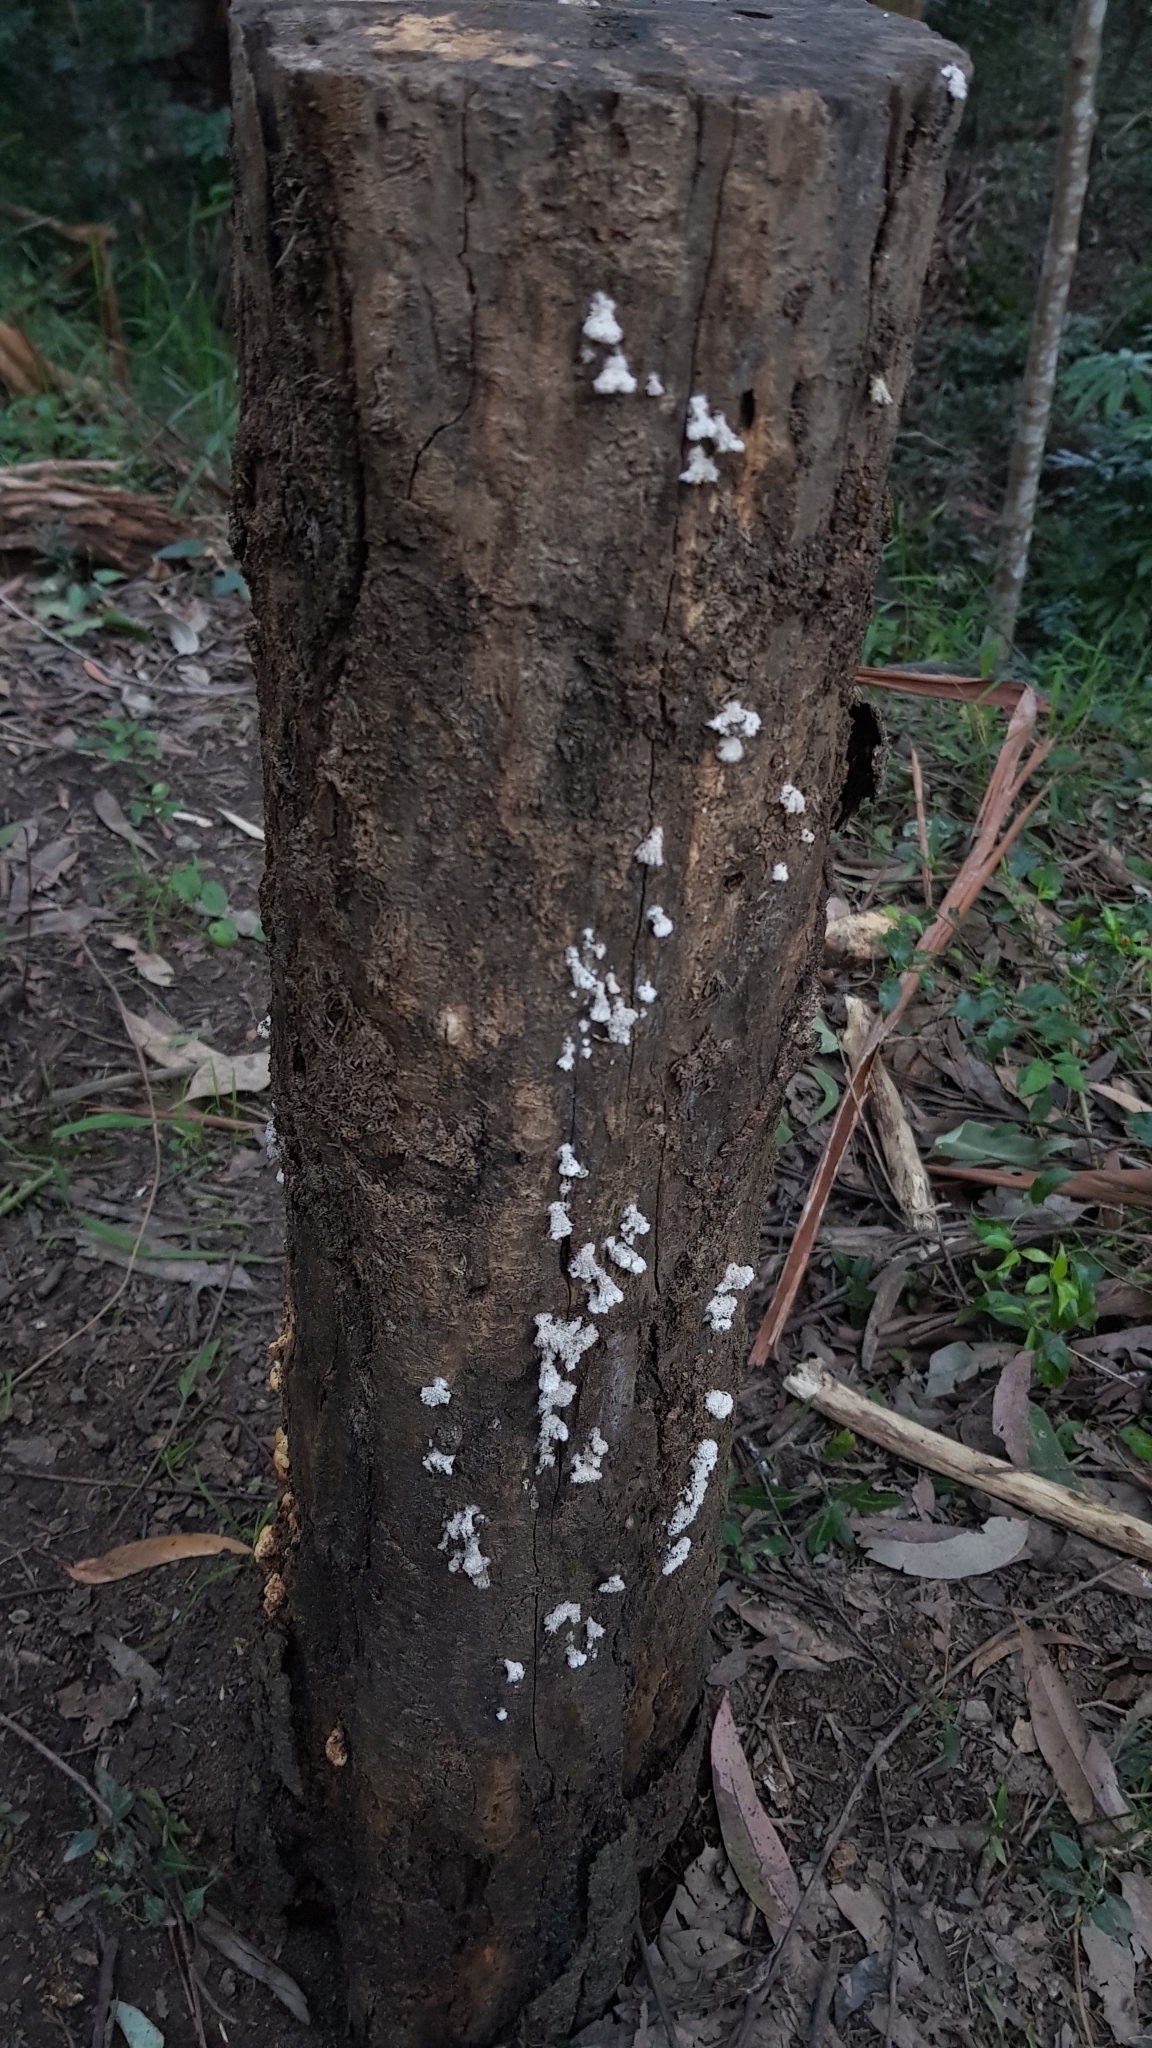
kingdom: Fungi
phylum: Basidiomycota
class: Agaricomycetes
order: Agaricales
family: Schizophyllaceae
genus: Schizophyllum
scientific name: Schizophyllum commune
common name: Common porecrust
